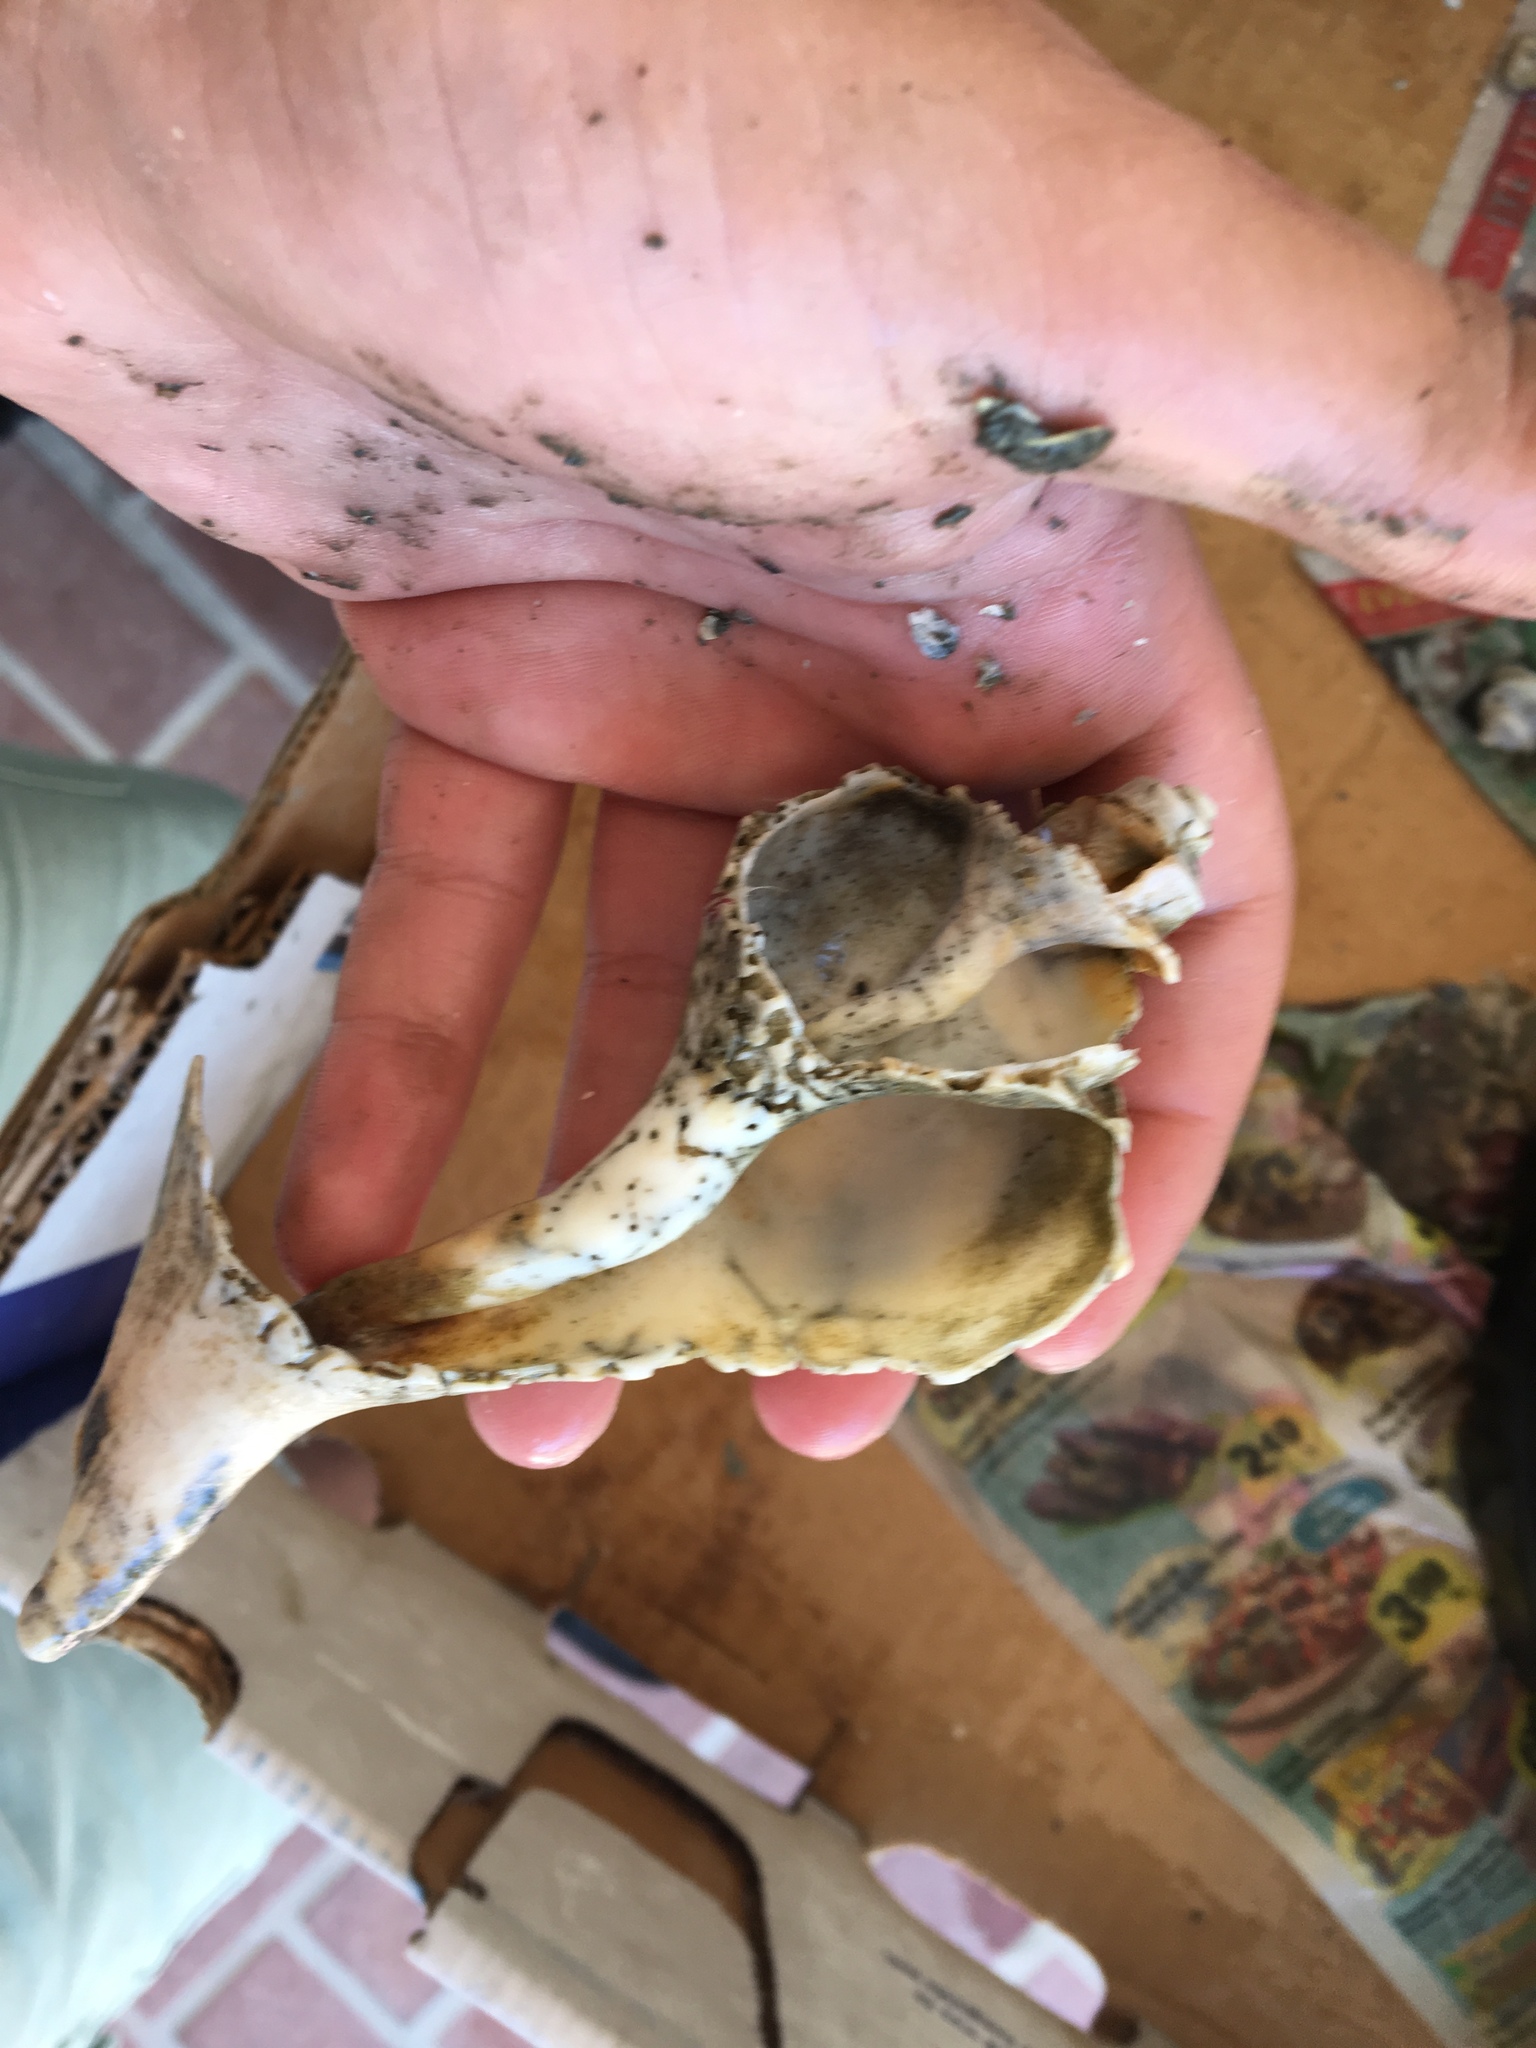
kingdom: Animalia
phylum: Mollusca
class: Gastropoda
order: Neogastropoda
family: Busyconidae
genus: Busycotypus
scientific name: Busycotypus canaliculatus
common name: Channeled whelk
